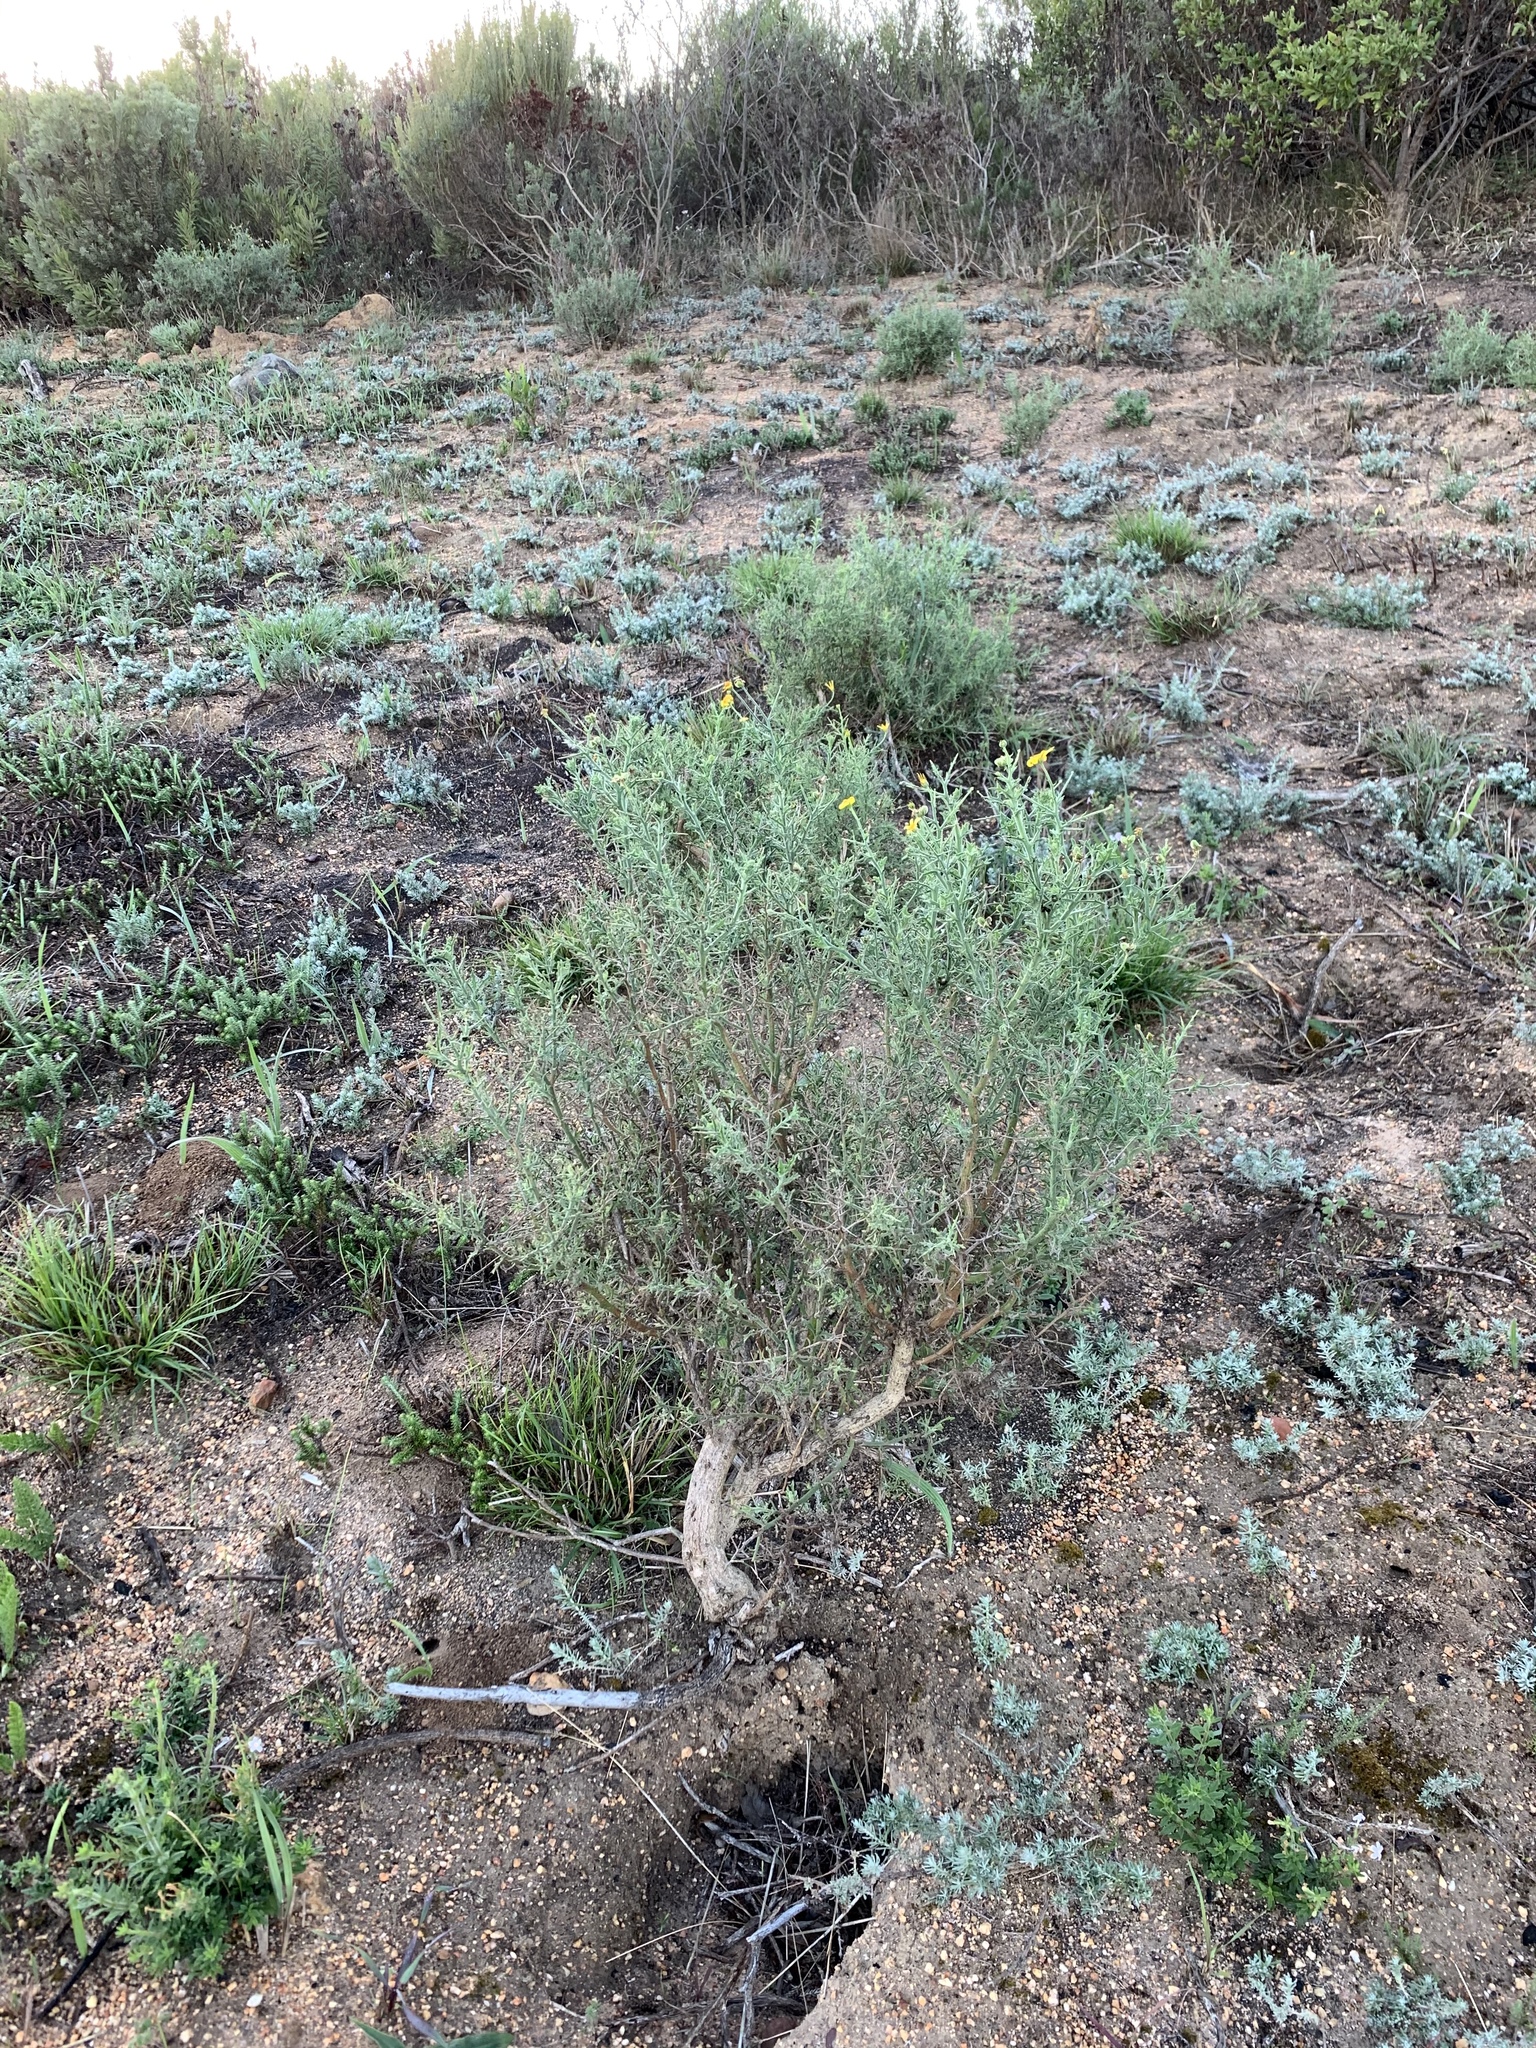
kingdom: Plantae
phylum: Tracheophyta
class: Magnoliopsida
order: Asterales
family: Asteraceae
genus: Osteospermum
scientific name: Osteospermum spinosum
